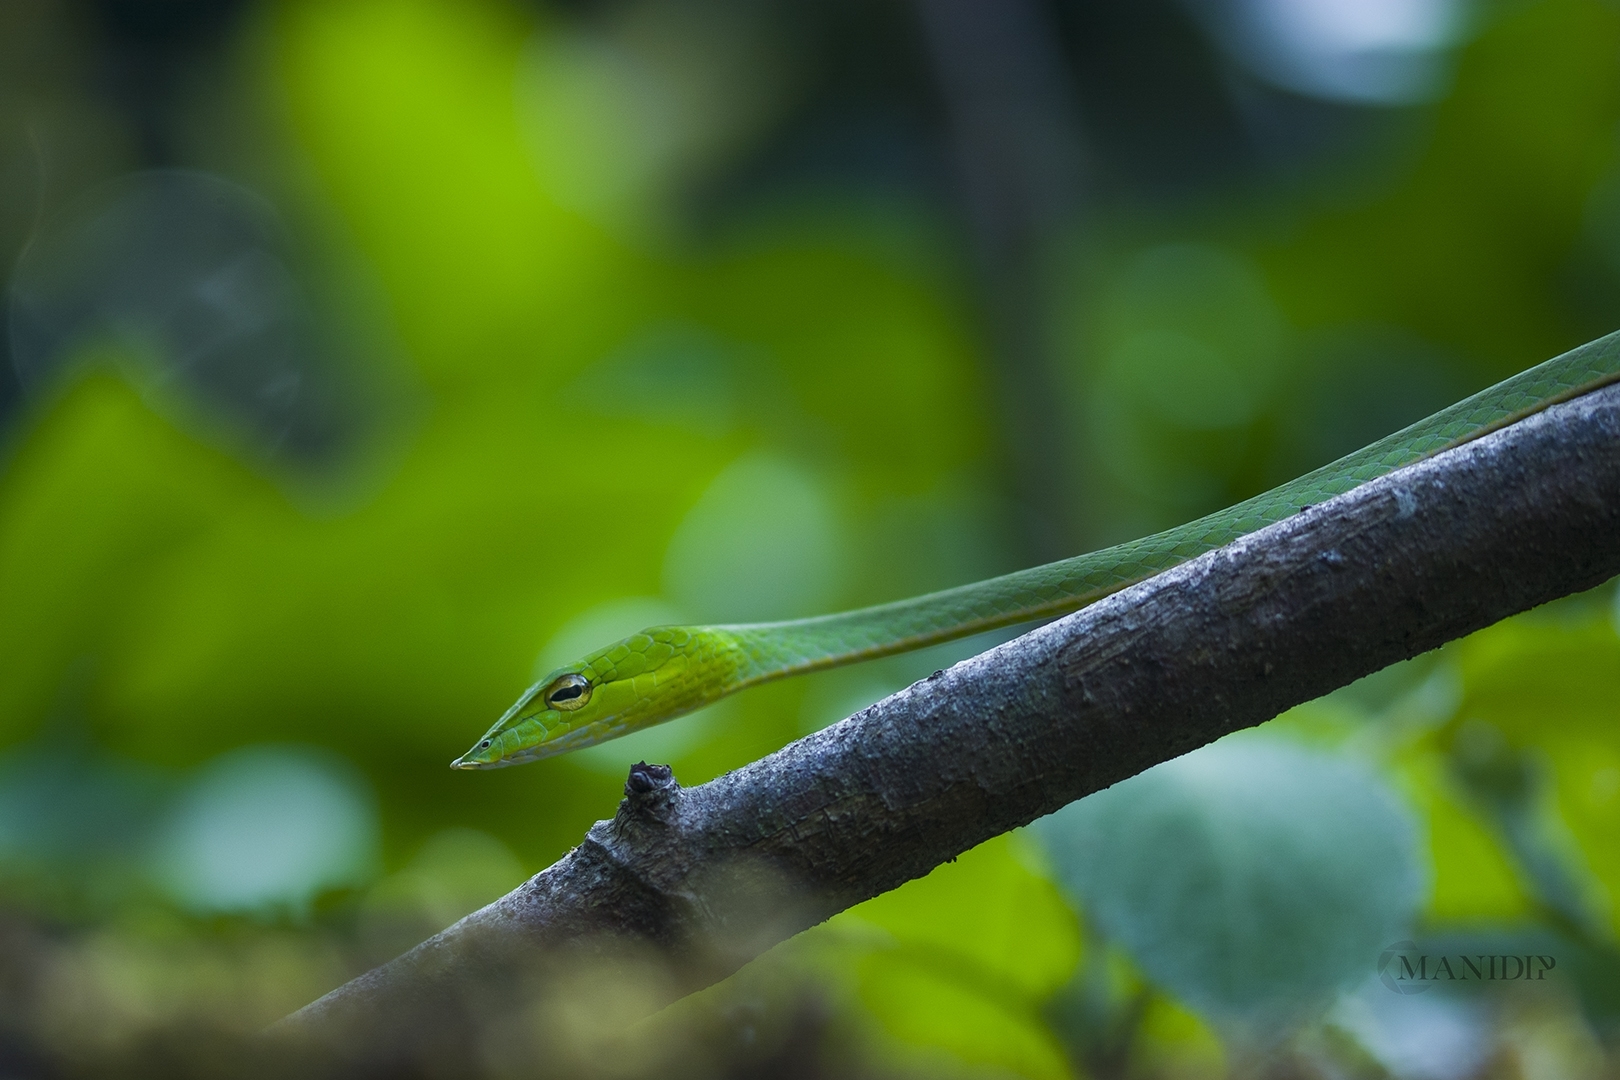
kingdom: Animalia
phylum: Chordata
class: Squamata
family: Colubridae
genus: Ahaetulla
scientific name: Ahaetulla borealis
